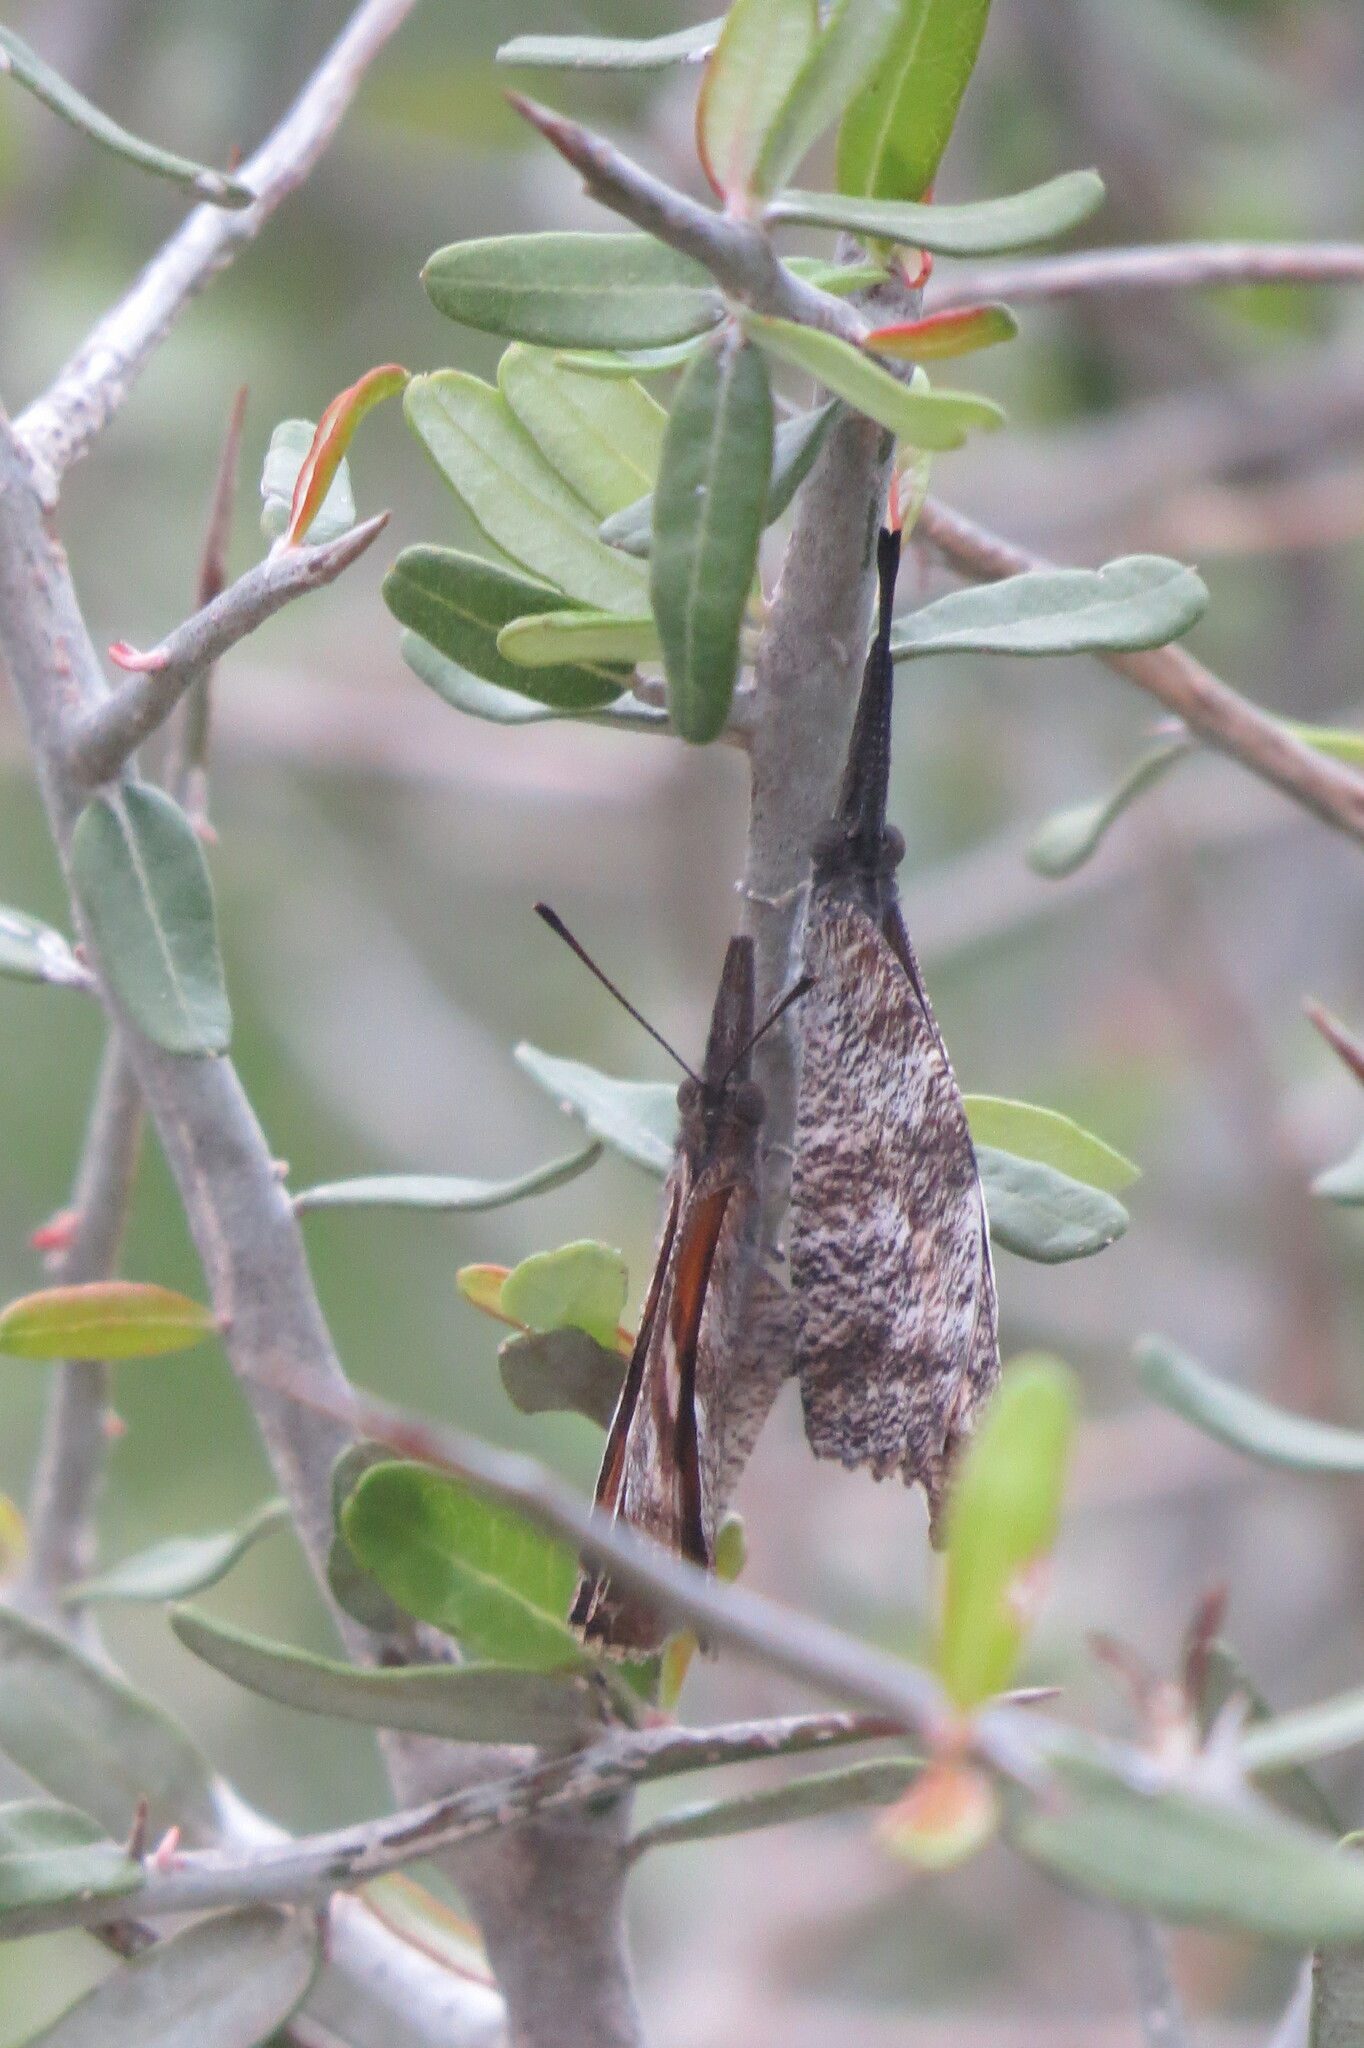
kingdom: Animalia
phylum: Arthropoda
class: Insecta
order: Lepidoptera
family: Nymphalidae
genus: Libytheana
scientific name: Libytheana carinenta
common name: American snout
